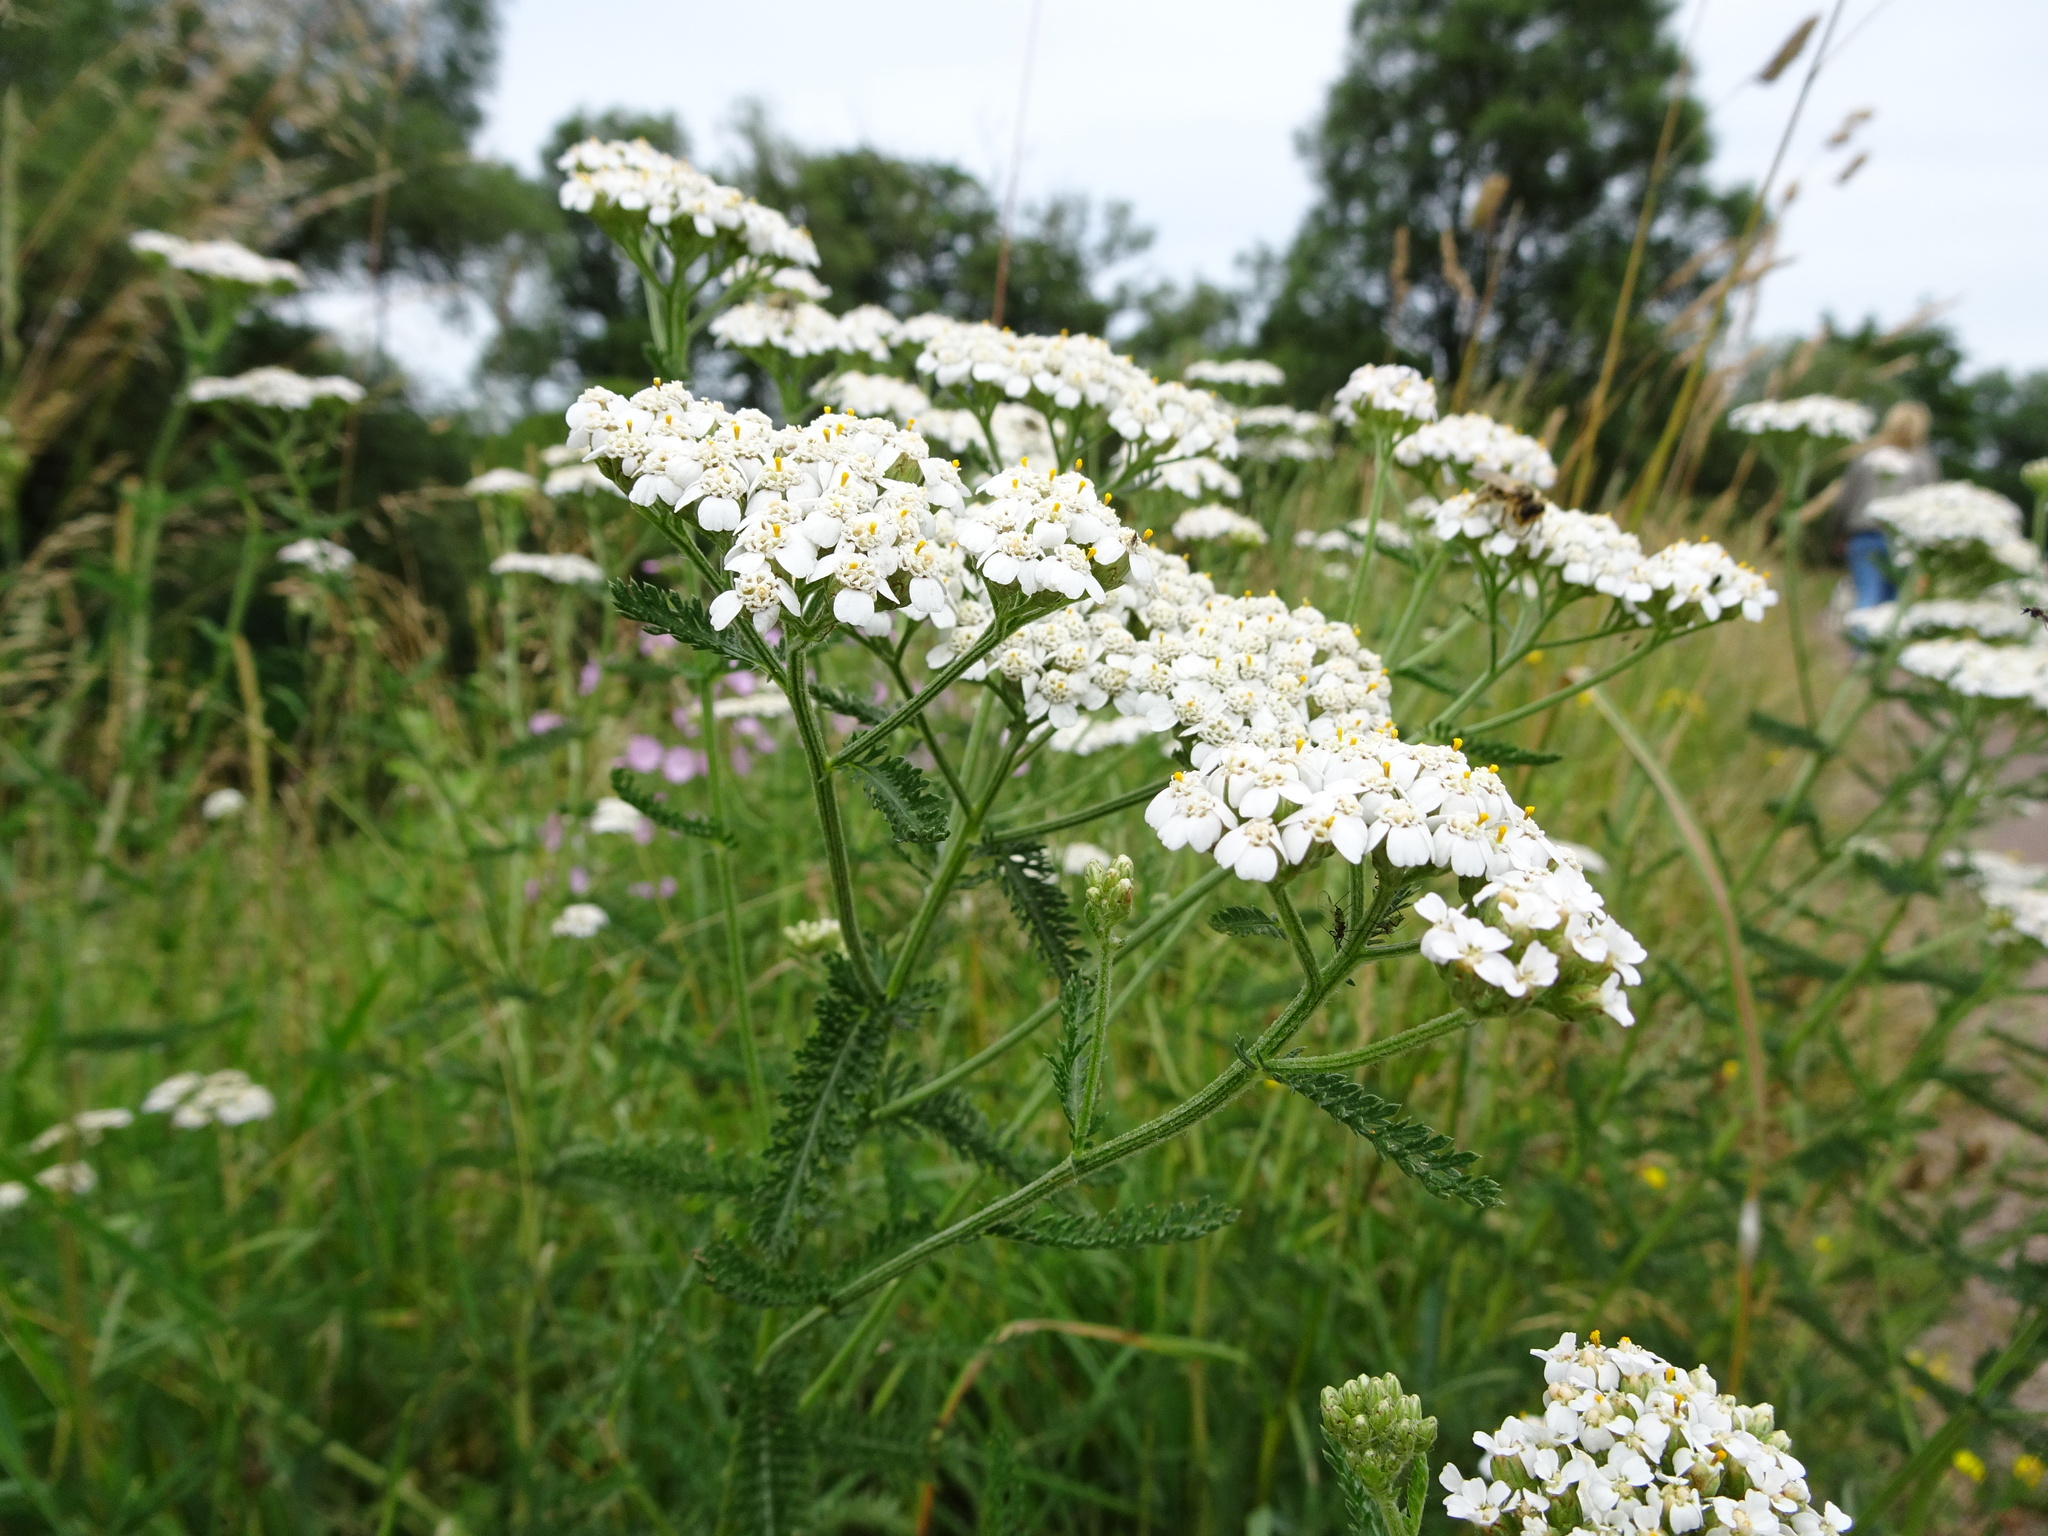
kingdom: Plantae
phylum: Tracheophyta
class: Magnoliopsida
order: Asterales
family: Asteraceae
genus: Achillea
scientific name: Achillea millefolium
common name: Yarrow
